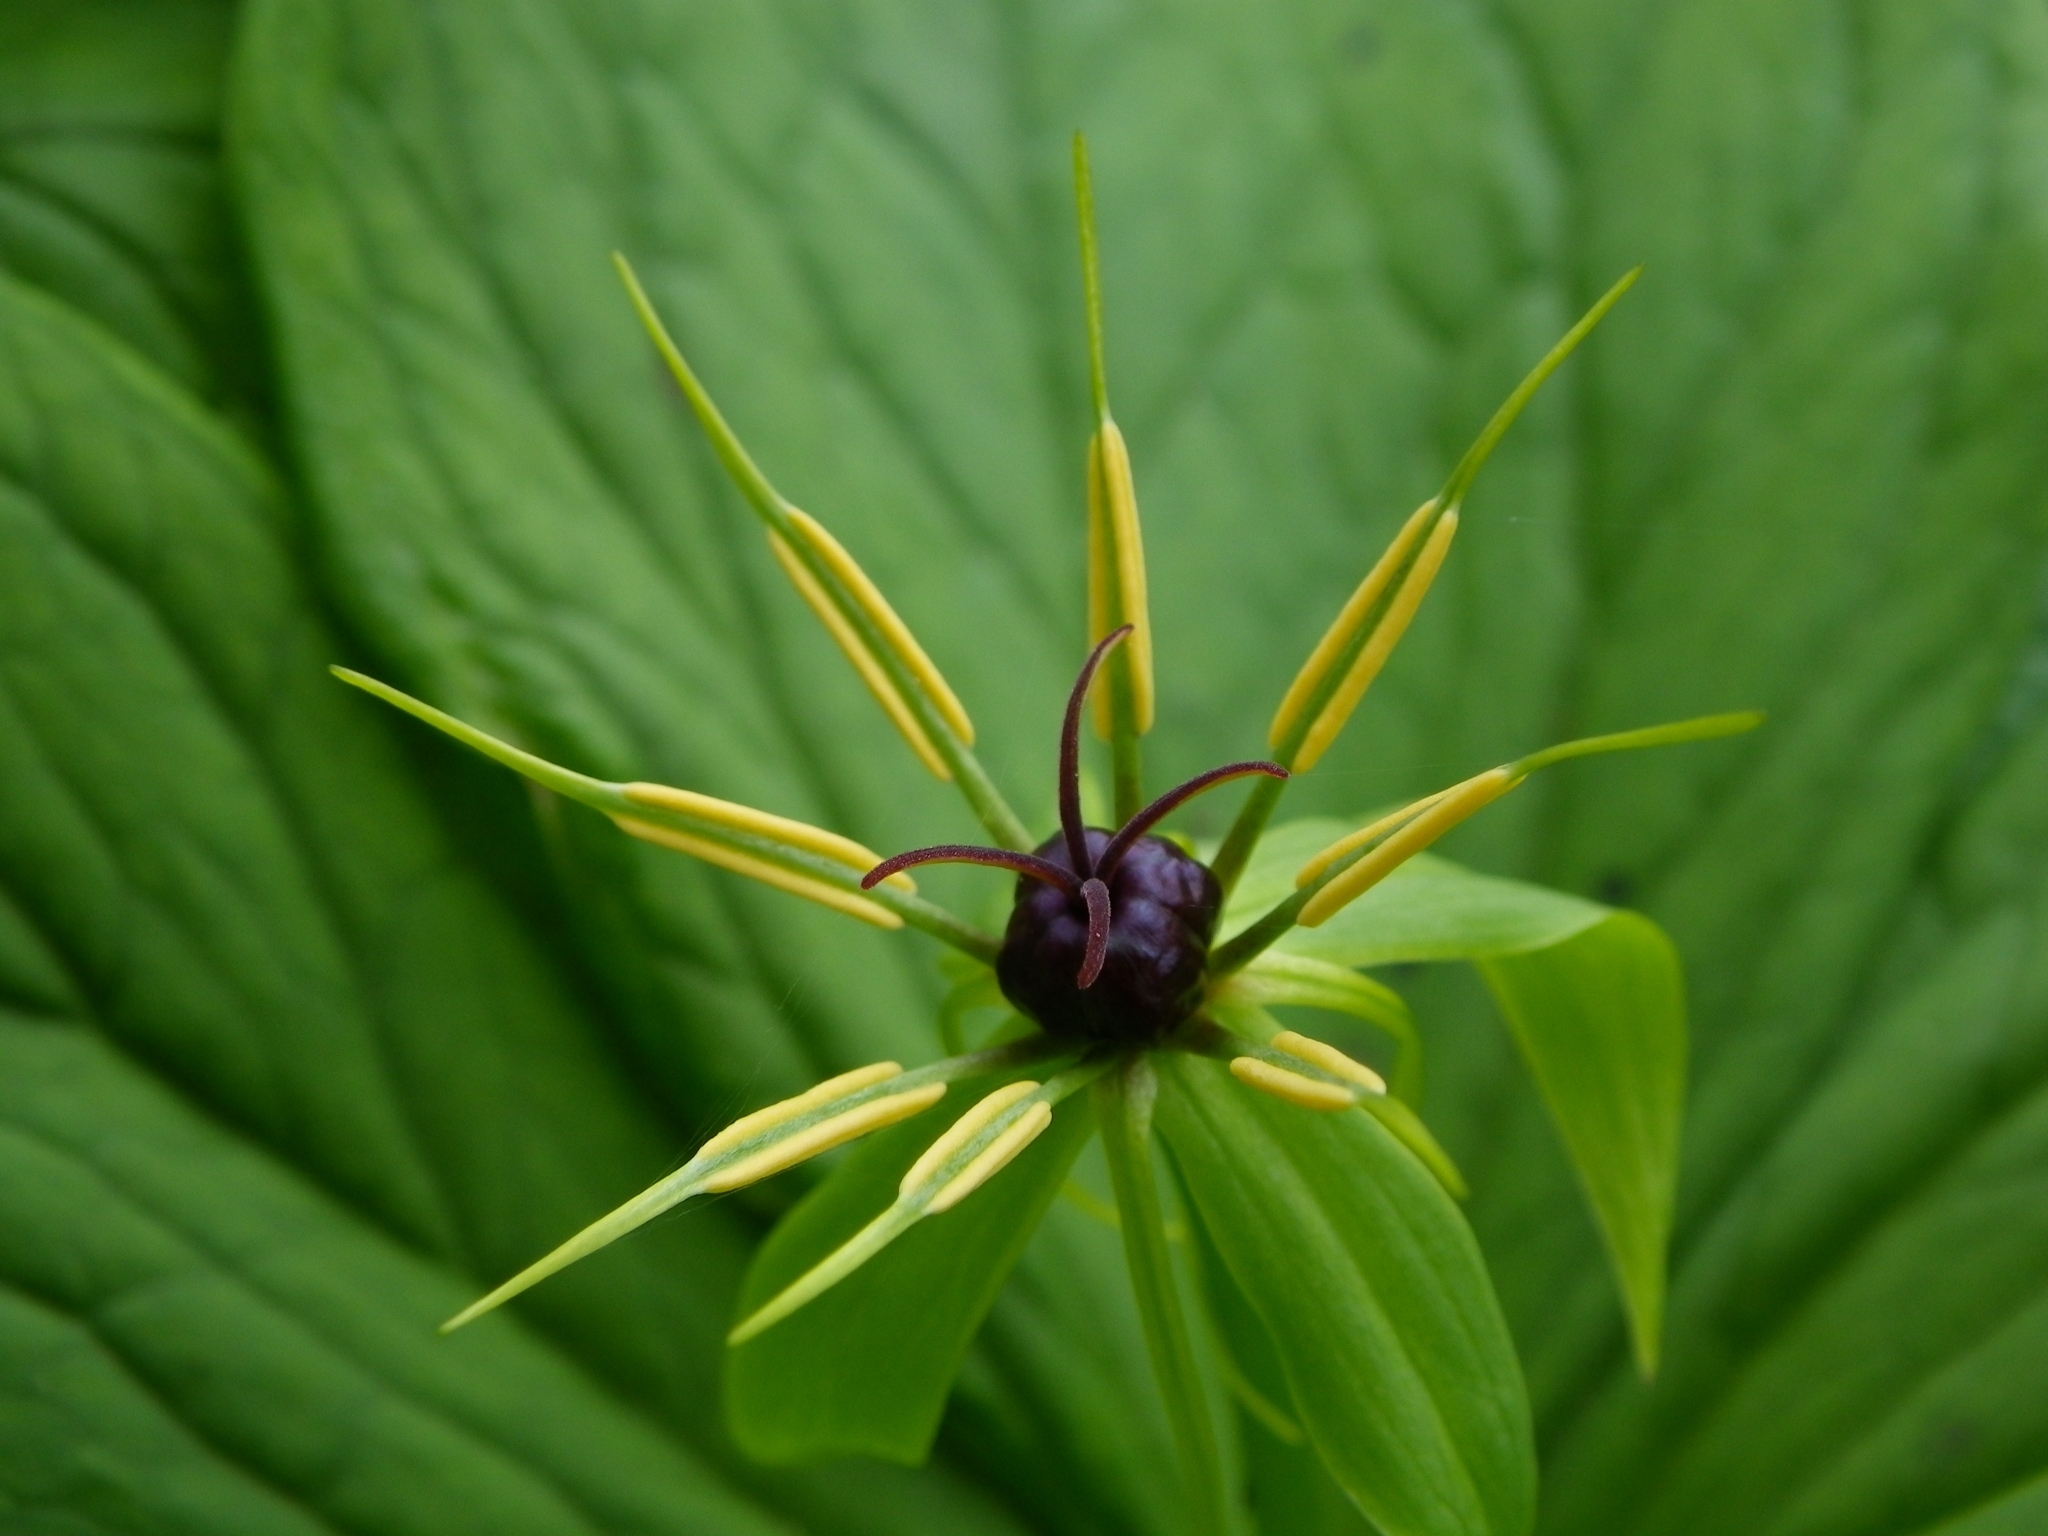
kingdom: Plantae
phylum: Tracheophyta
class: Liliopsida
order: Liliales
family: Melanthiaceae
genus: Paris
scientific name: Paris quadrifolia
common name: Herb-paris
